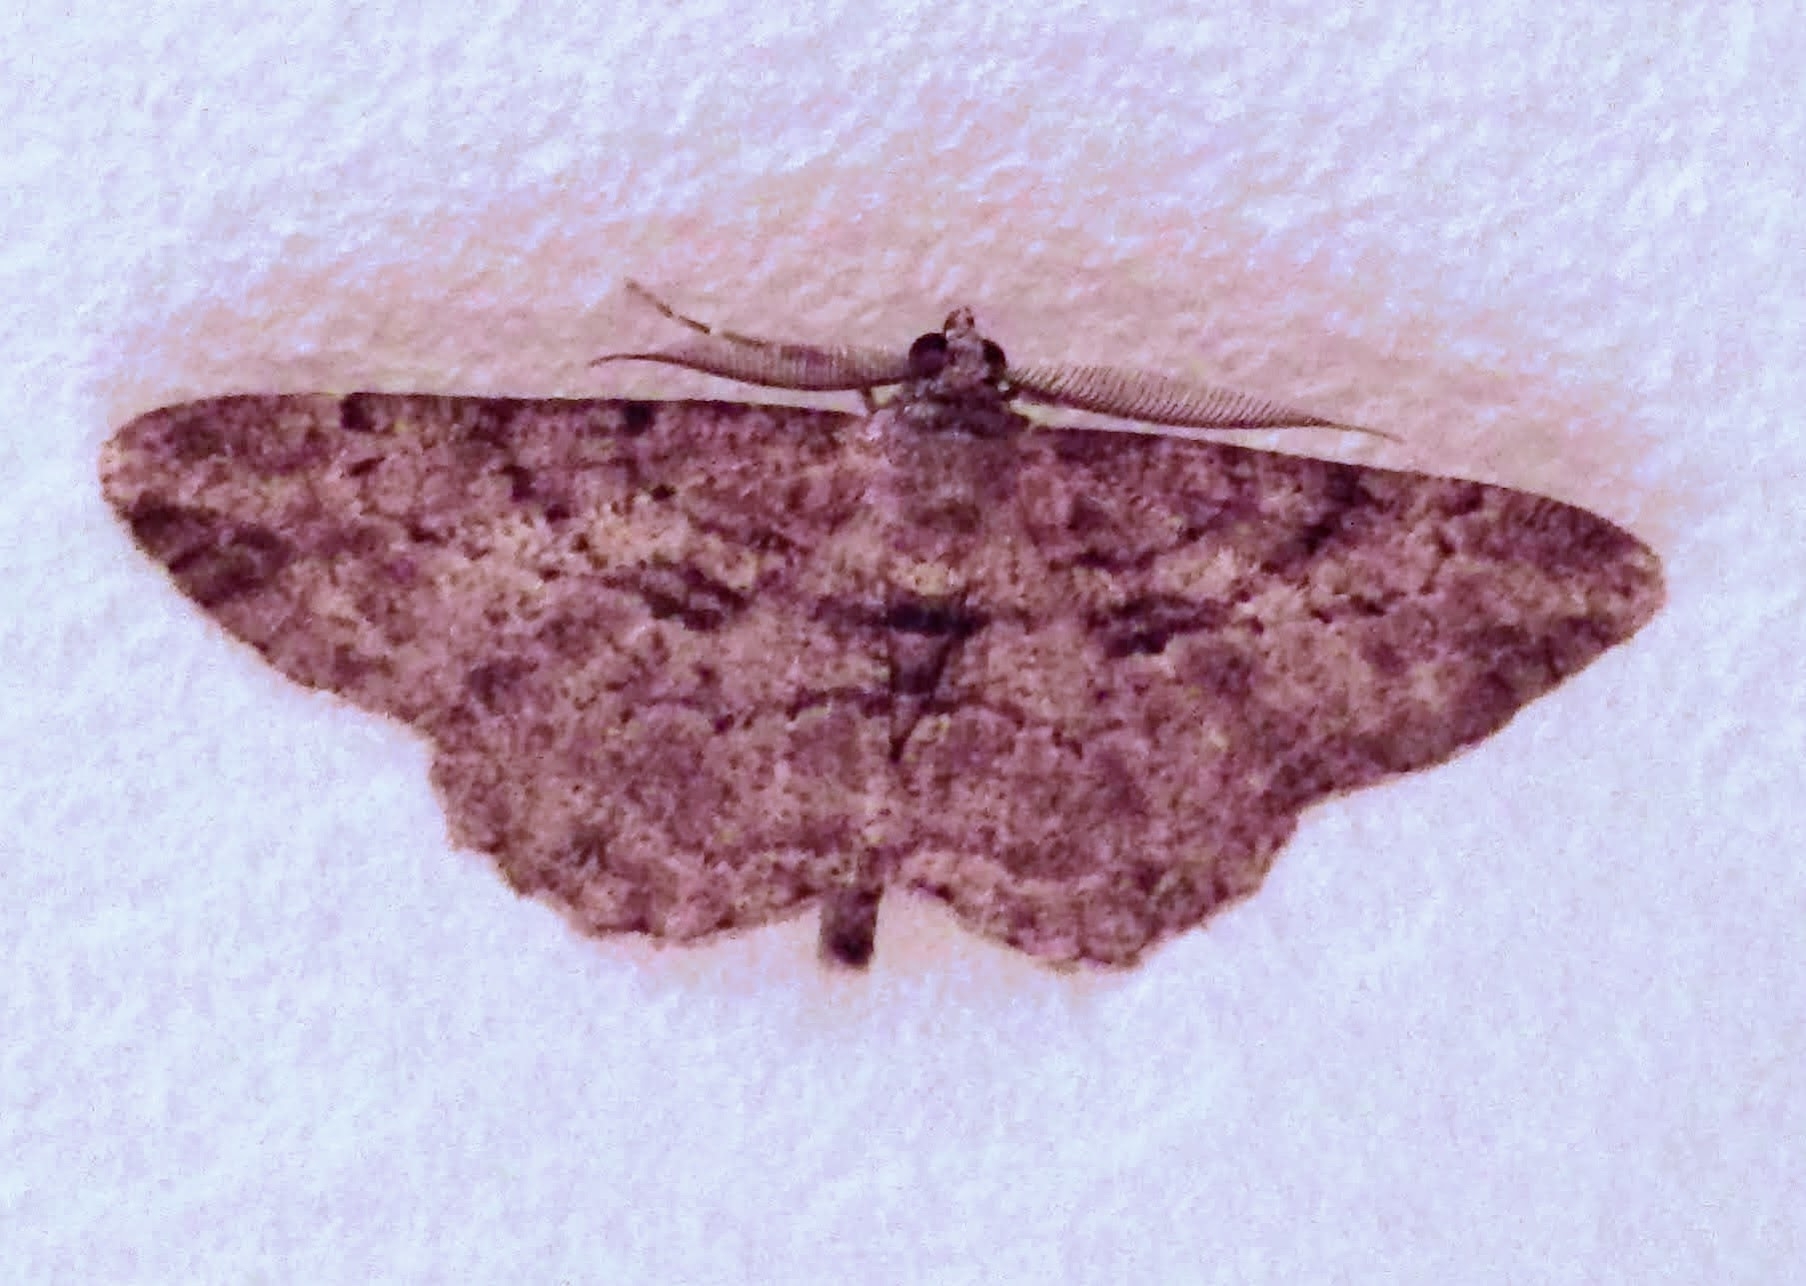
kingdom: Animalia
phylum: Arthropoda
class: Insecta
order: Lepidoptera
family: Geometridae
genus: Peribatodes
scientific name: Peribatodes rhomboidaria
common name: Willow beauty
